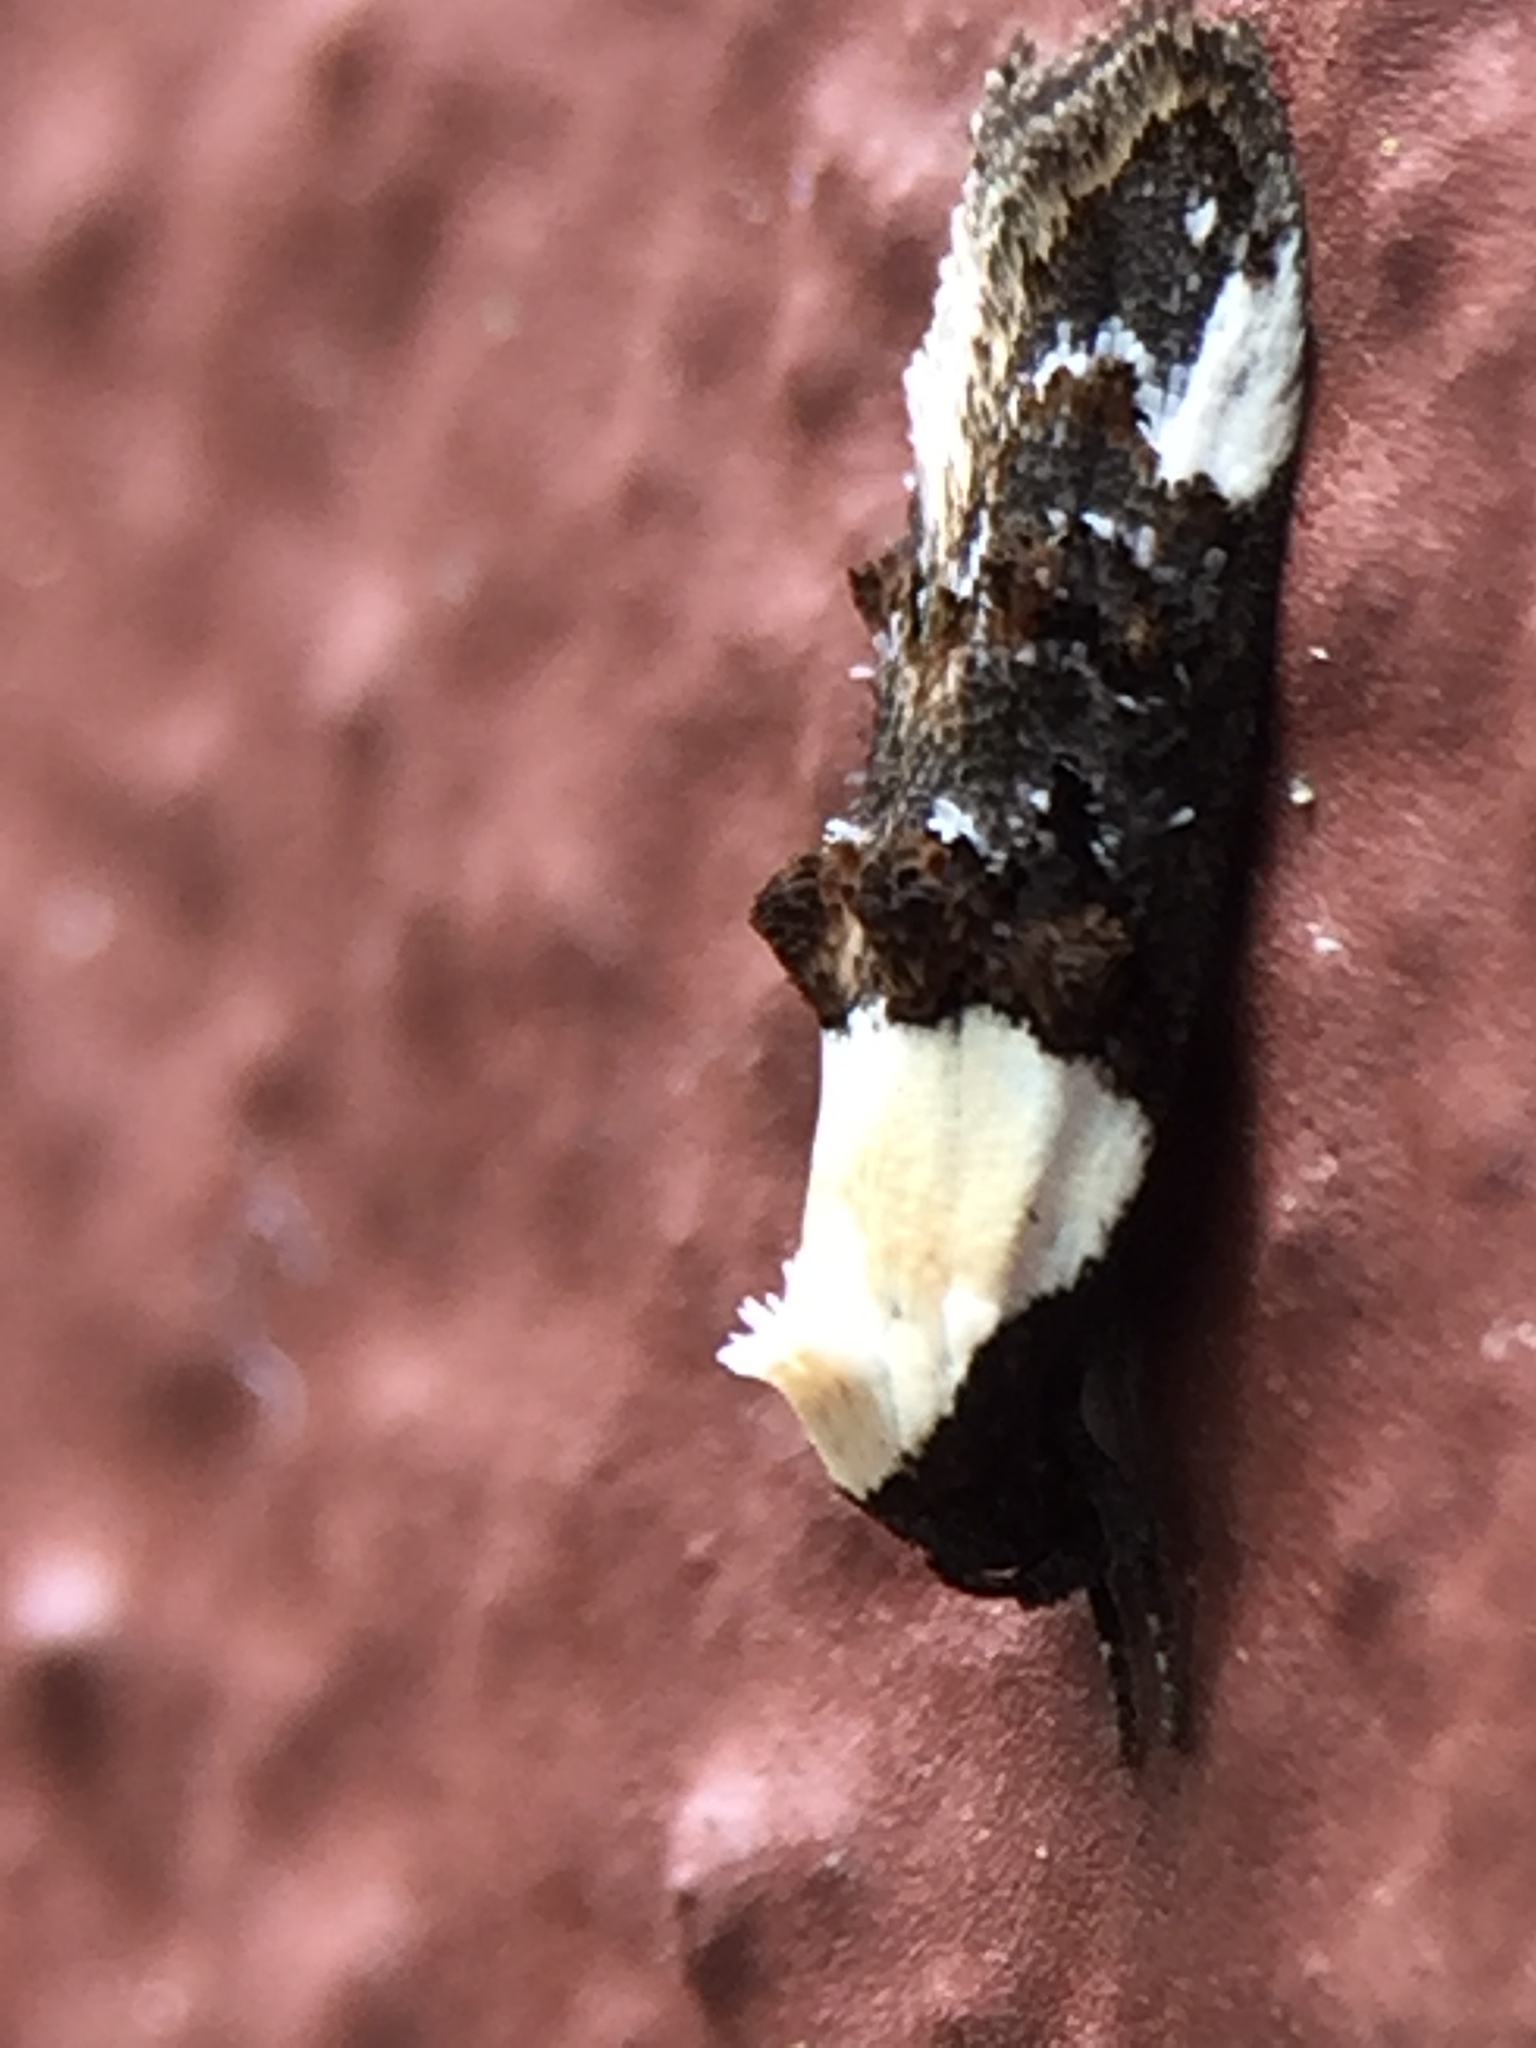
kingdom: Animalia
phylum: Arthropoda
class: Insecta
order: Lepidoptera
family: Oecophoridae
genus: Trachypepla
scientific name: Trachypepla euryleucota
